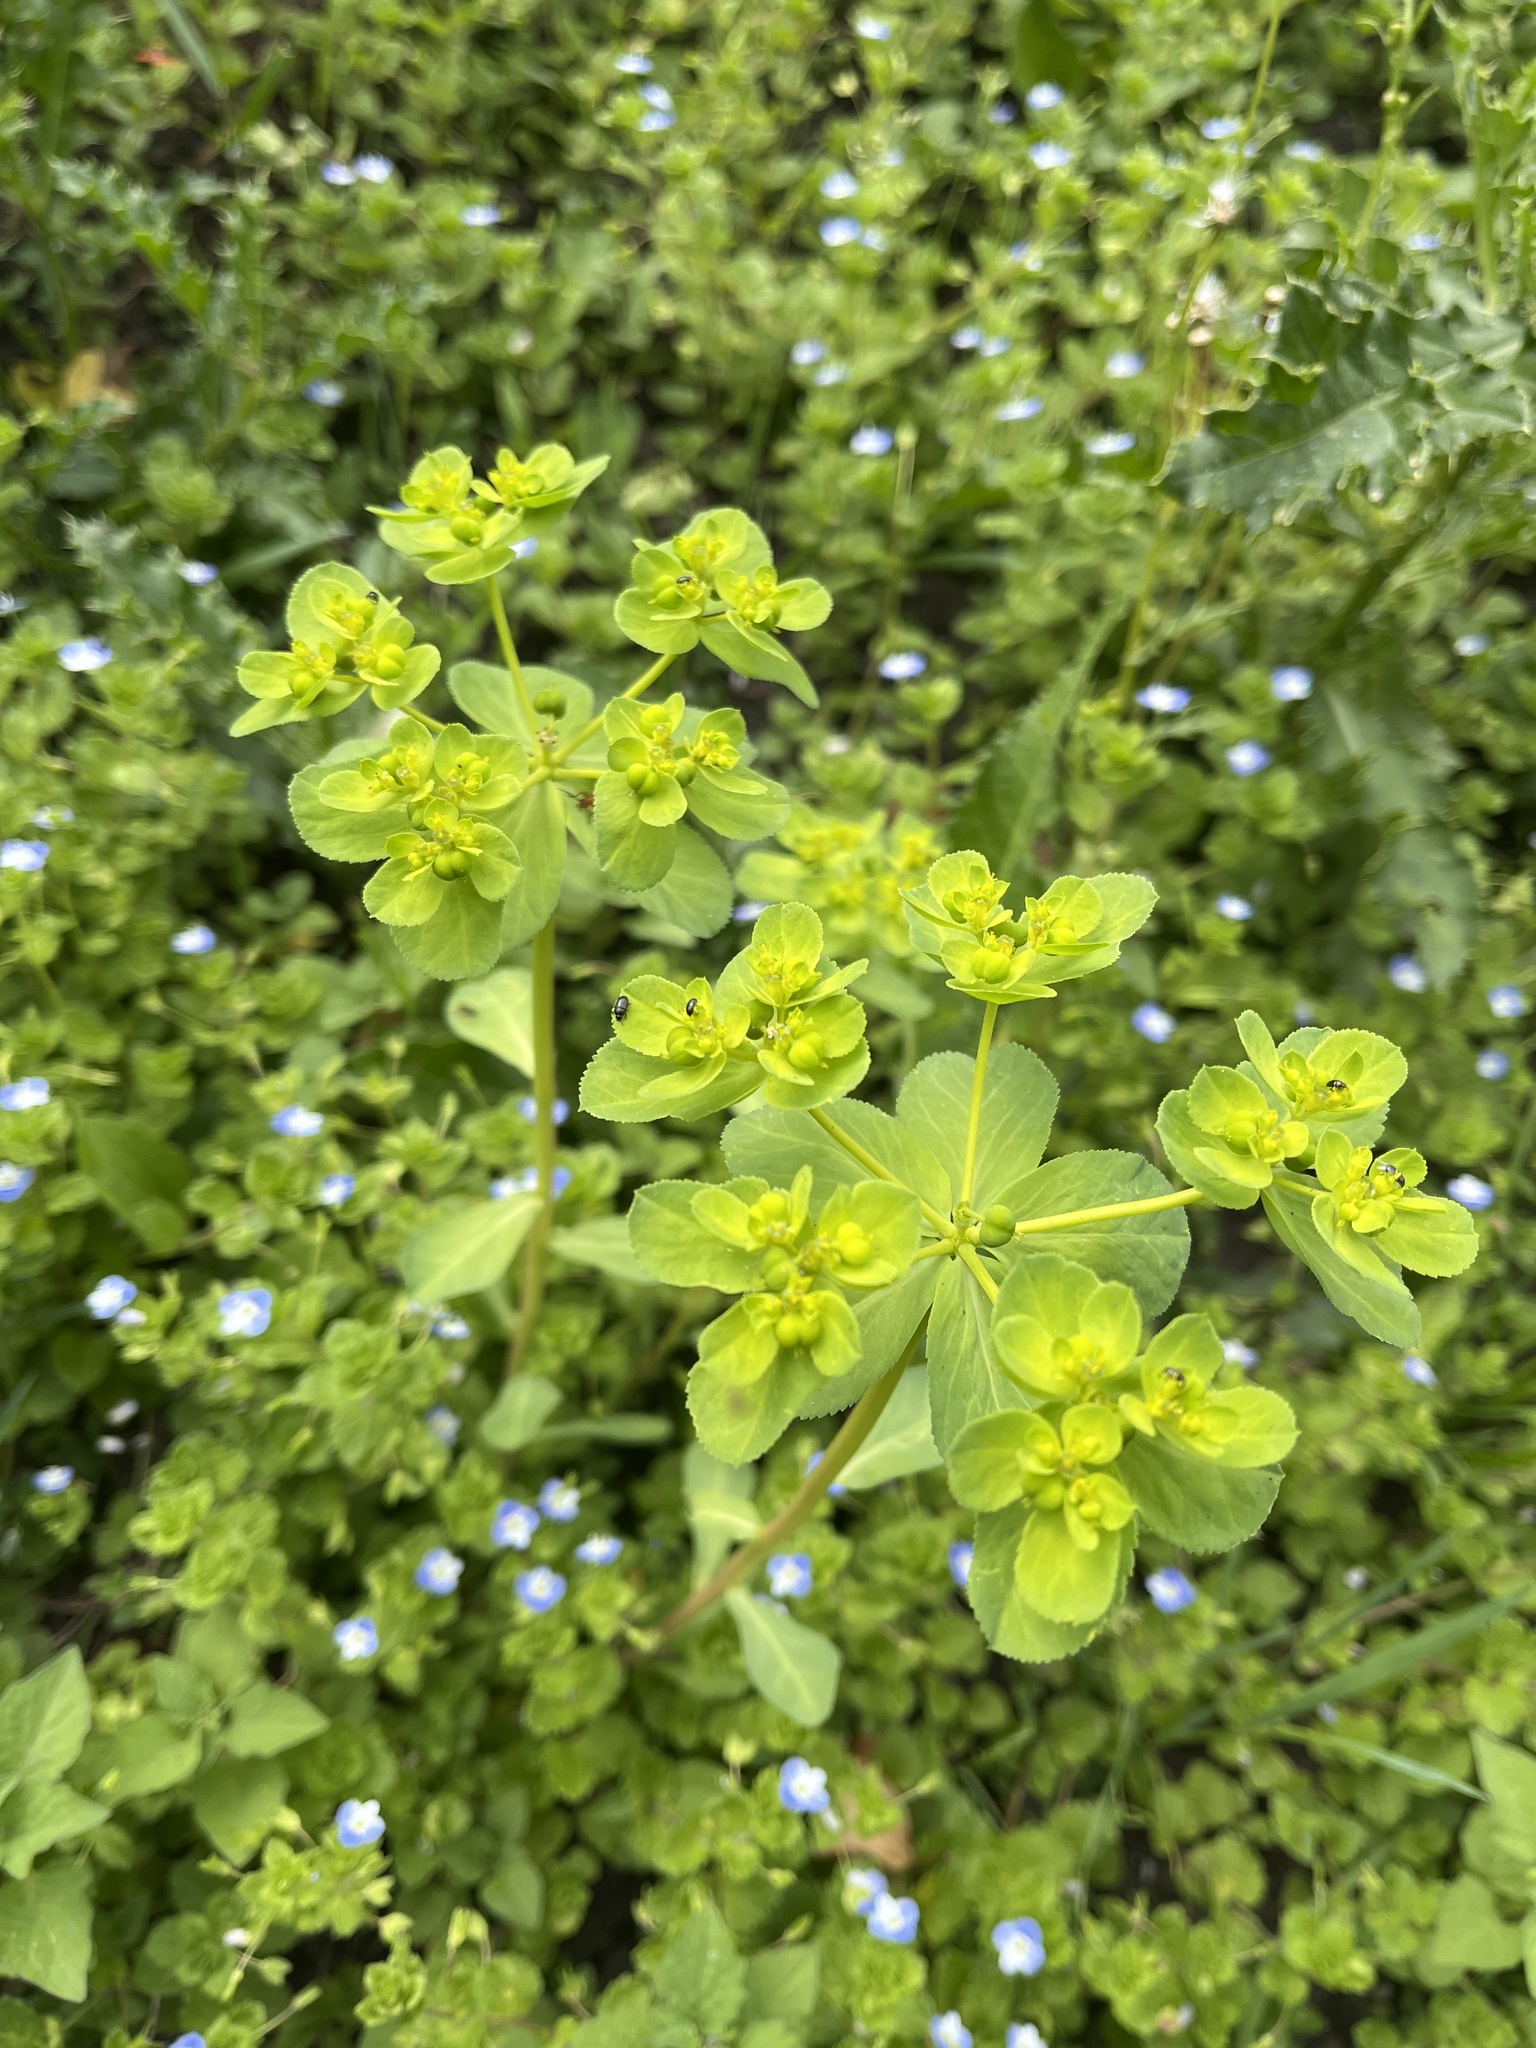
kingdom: Plantae
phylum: Tracheophyta
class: Magnoliopsida
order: Malpighiales
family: Euphorbiaceae
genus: Euphorbia
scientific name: Euphorbia helioscopia
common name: Sun spurge
